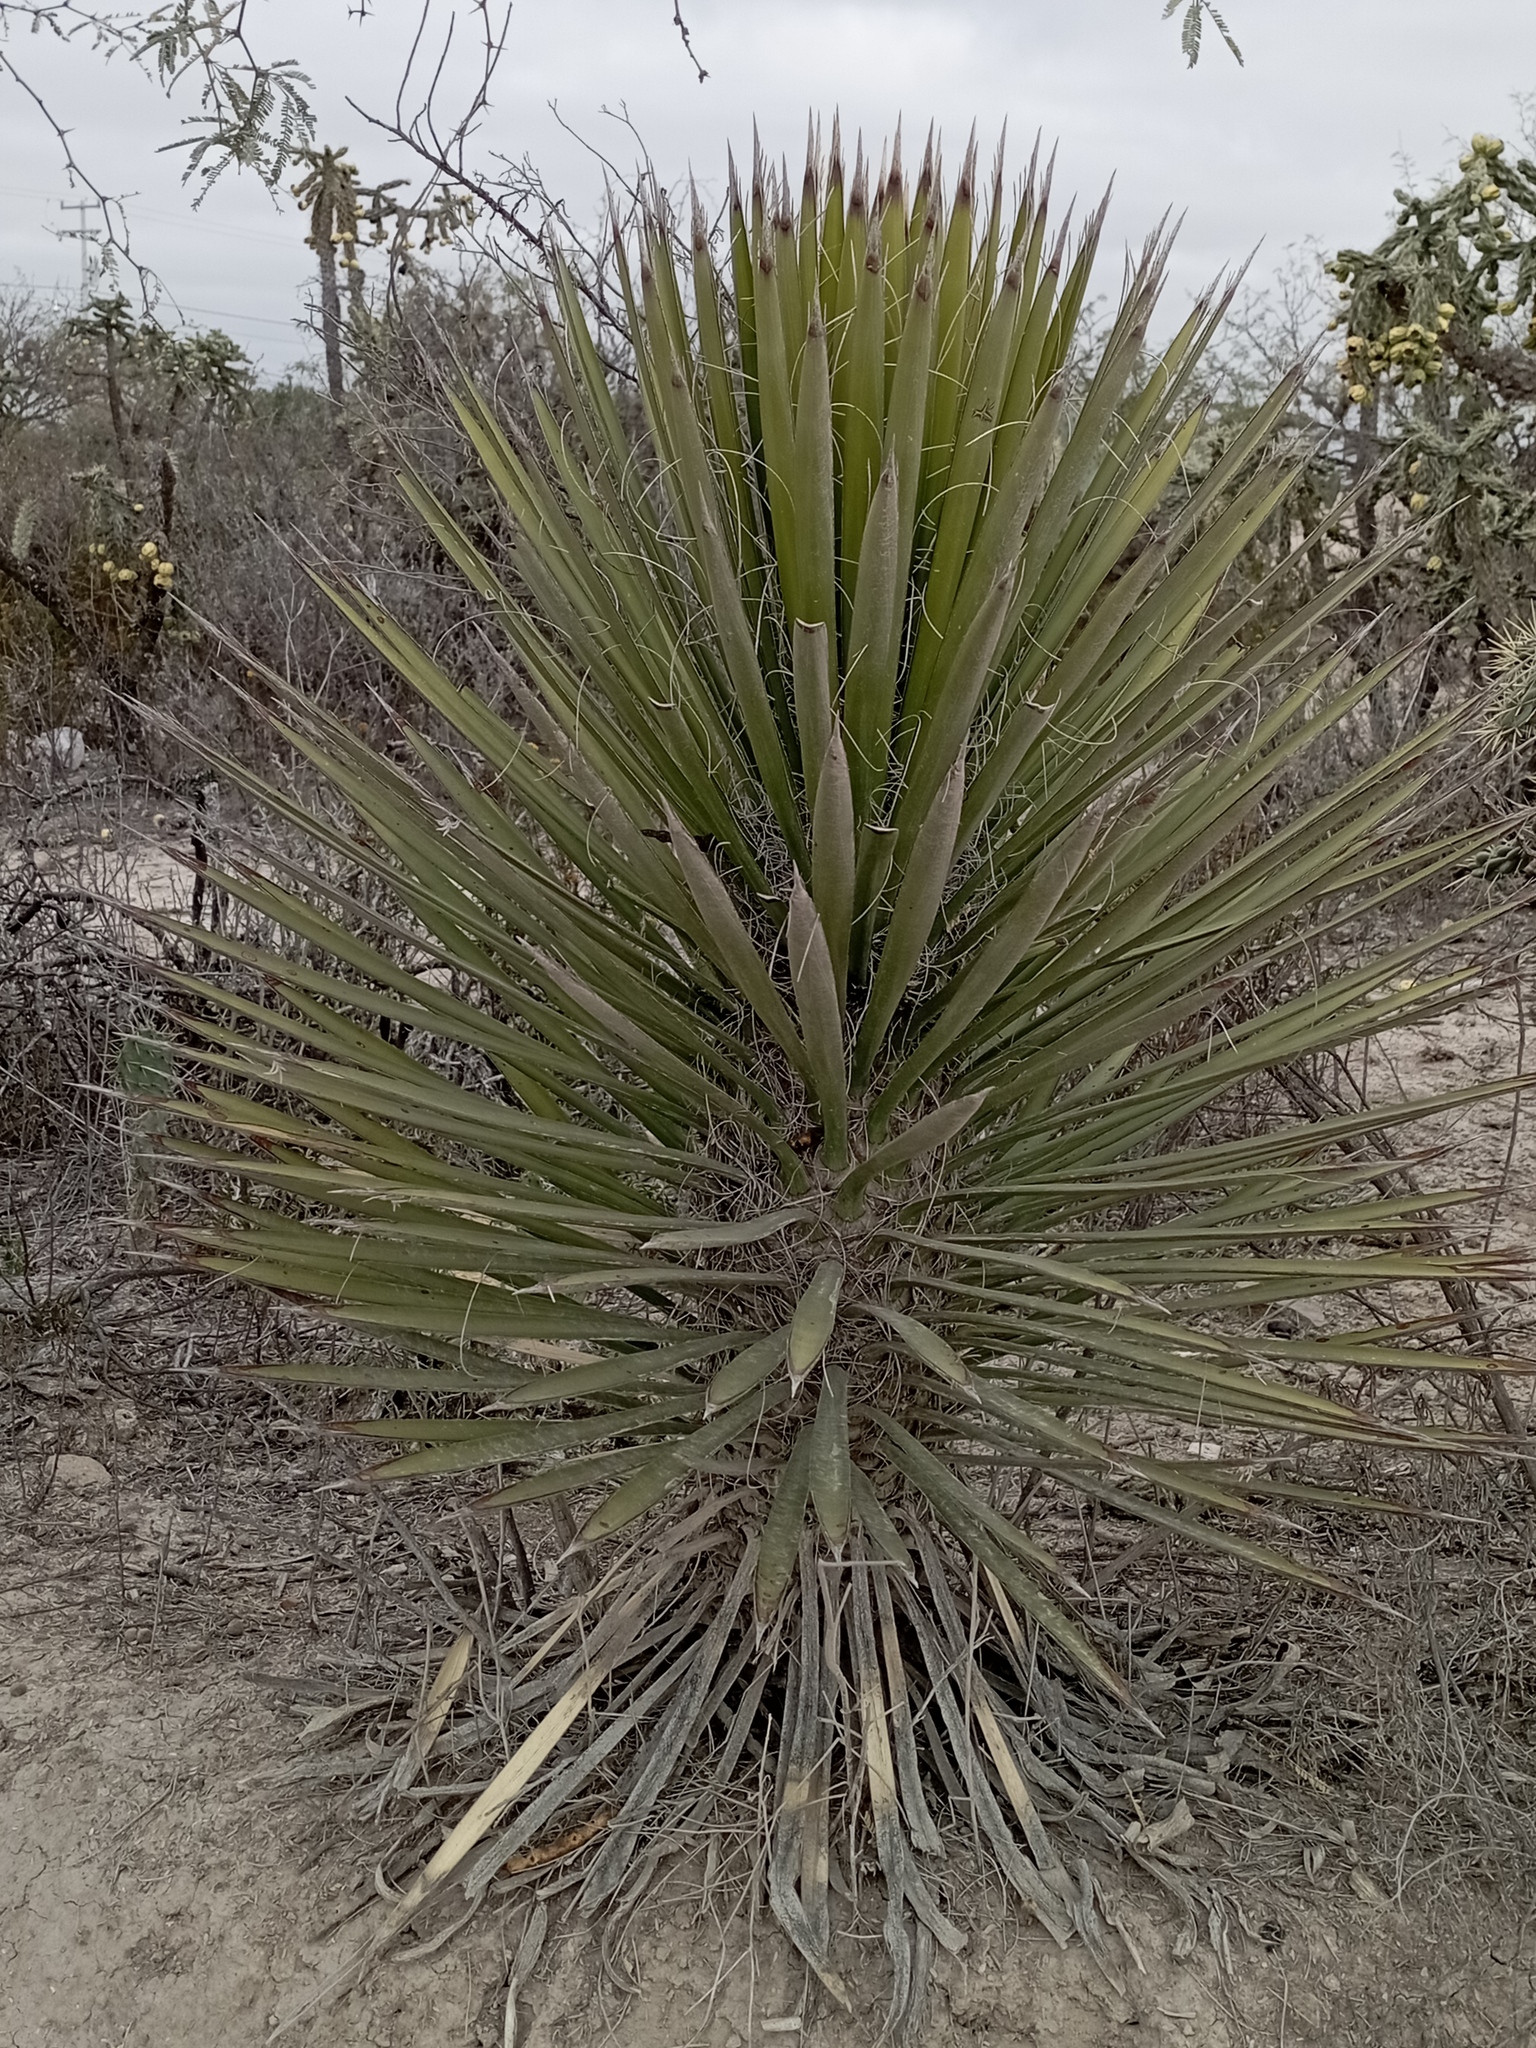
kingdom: Plantae
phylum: Tracheophyta
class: Liliopsida
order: Asparagales
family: Asparagaceae
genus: Yucca
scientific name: Yucca filifera
